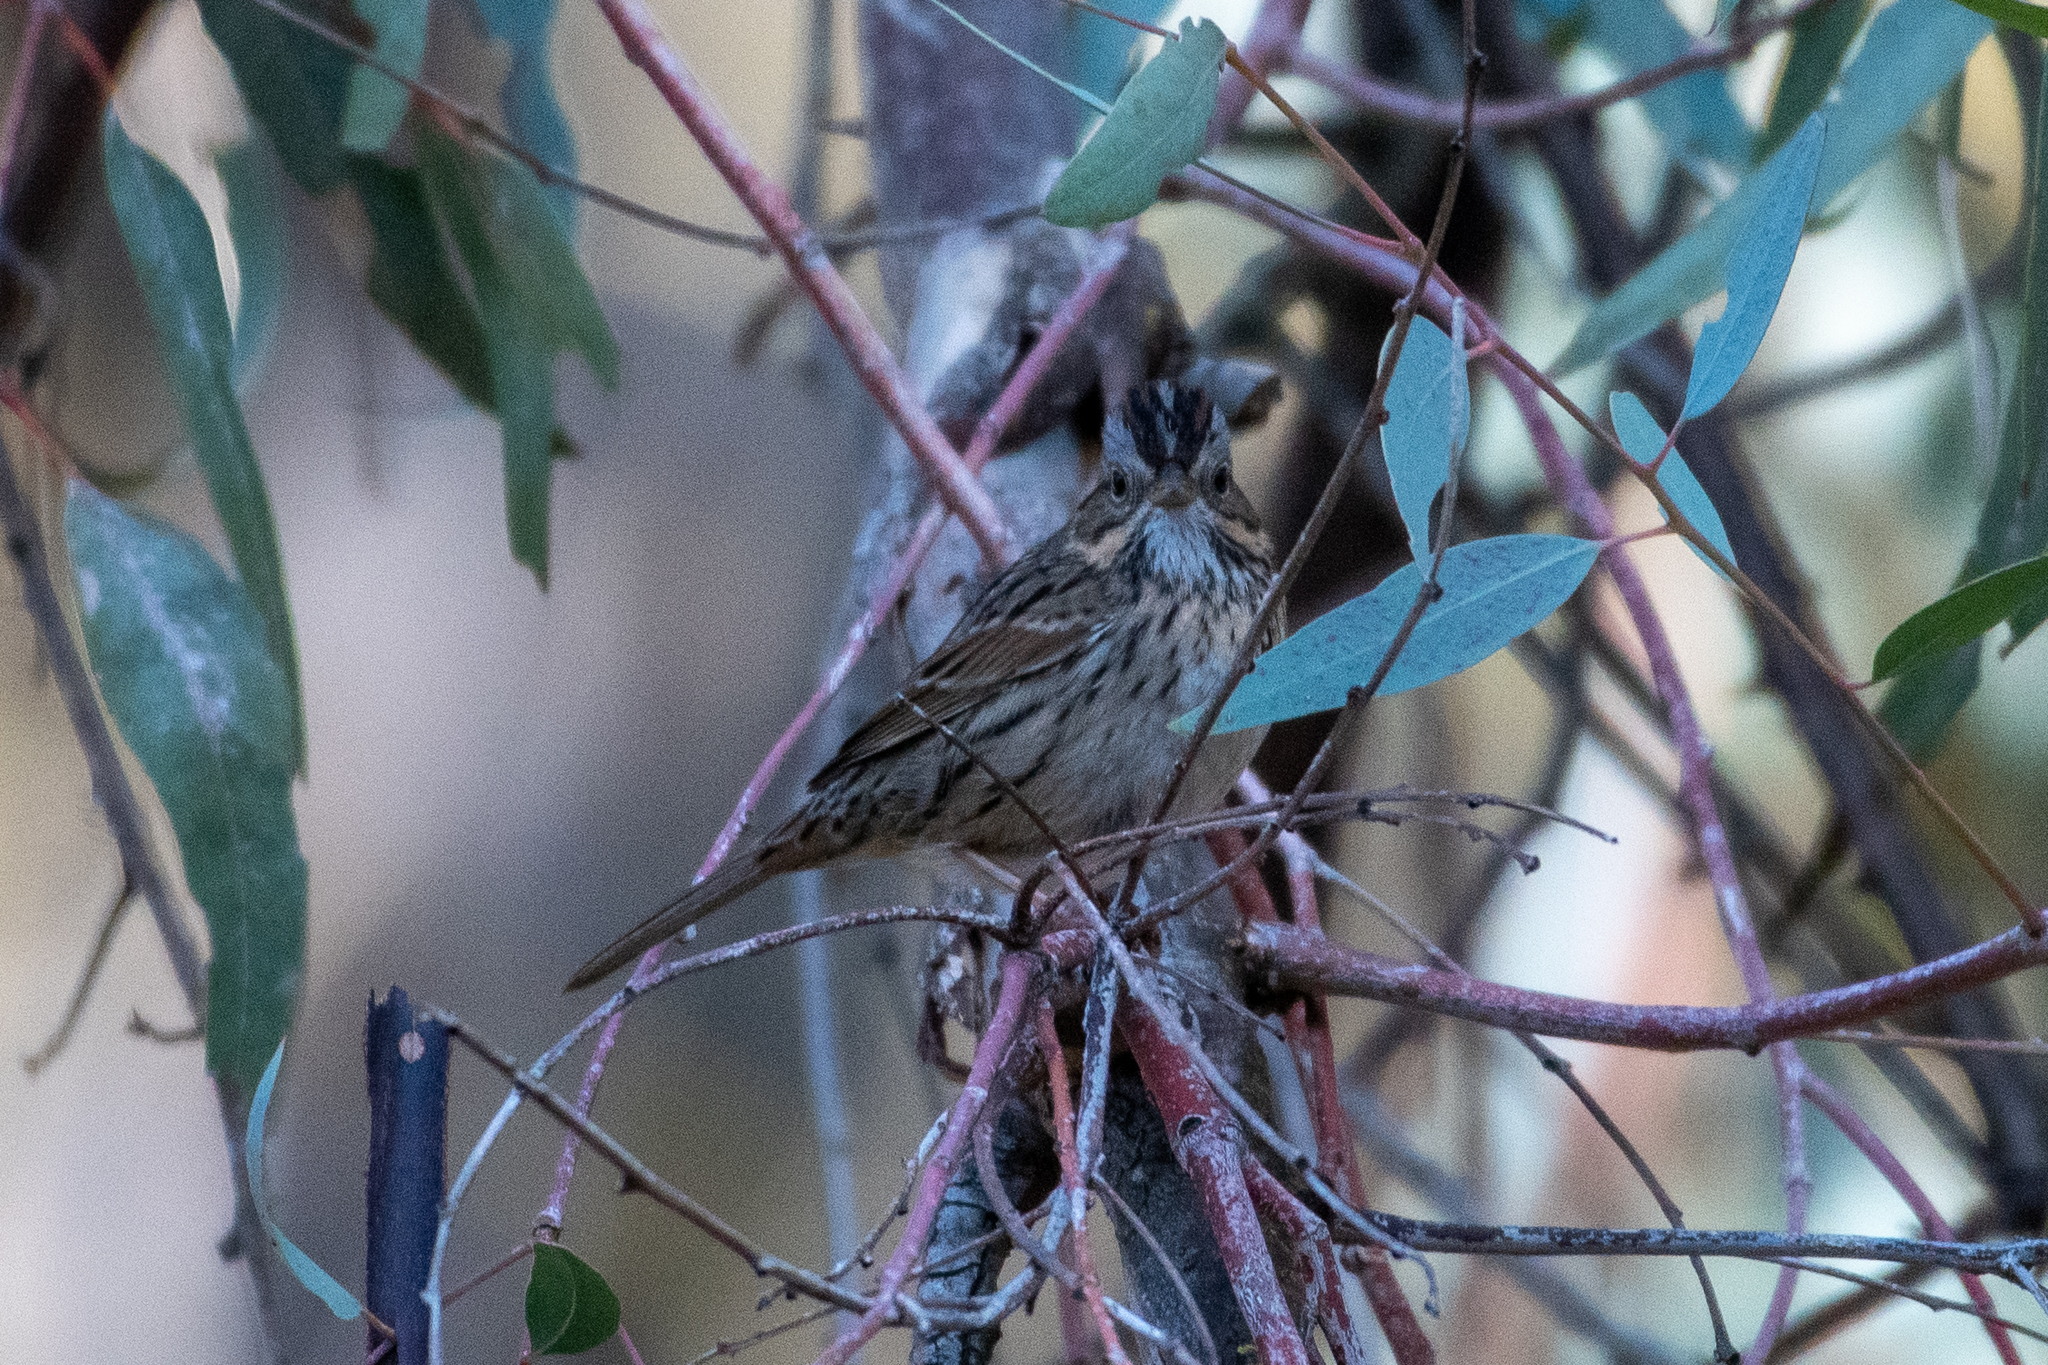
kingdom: Animalia
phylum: Chordata
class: Aves
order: Passeriformes
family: Passerellidae
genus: Melospiza
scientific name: Melospiza lincolnii
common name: Lincoln's sparrow
